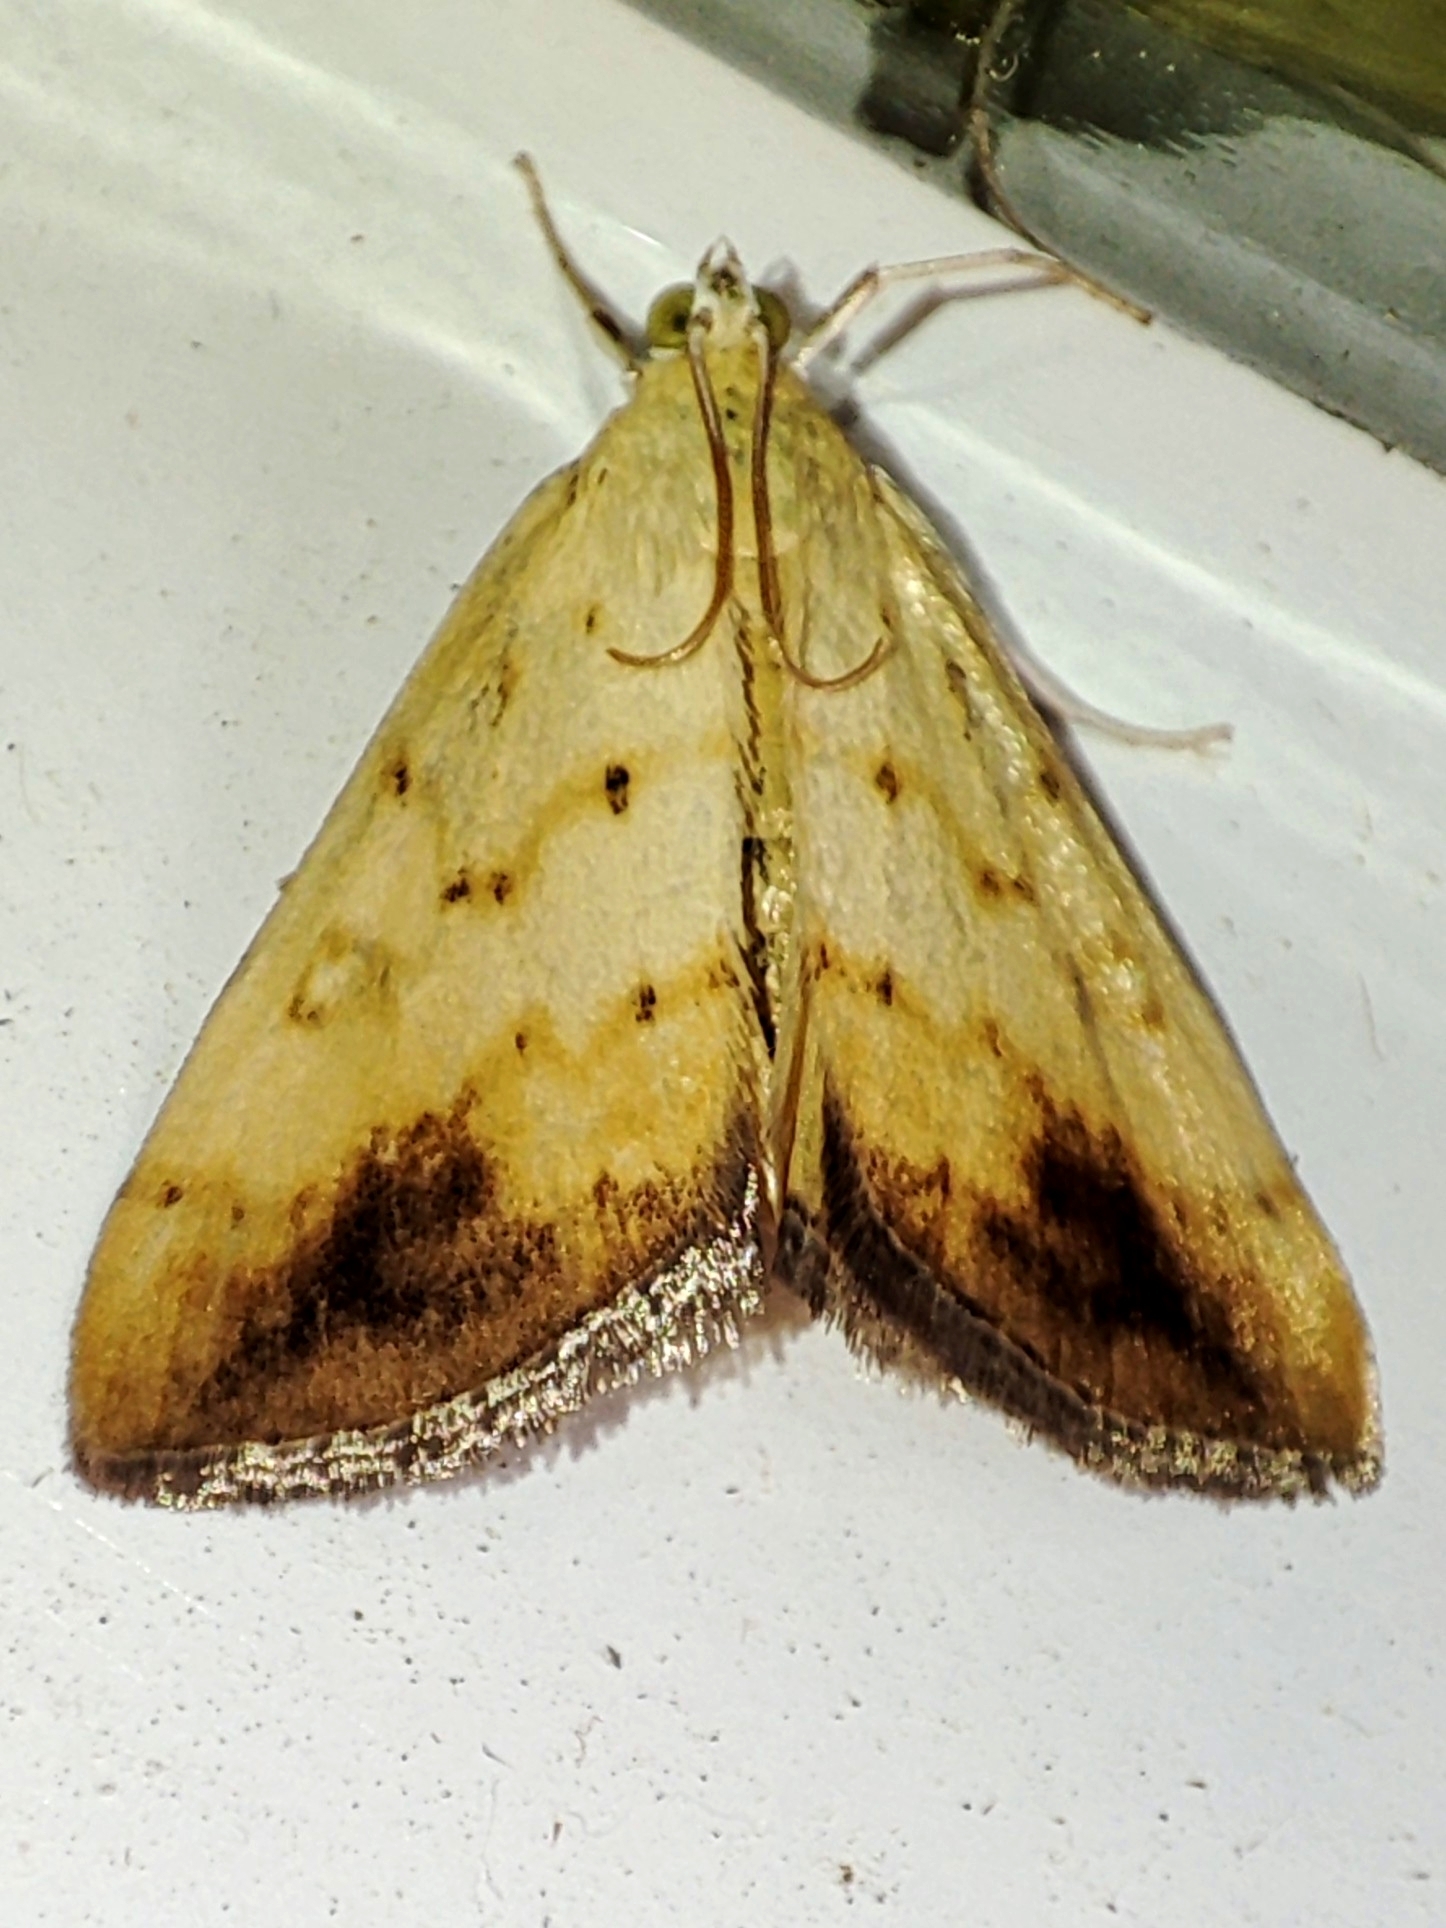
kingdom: Animalia
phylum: Arthropoda
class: Insecta
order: Lepidoptera
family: Crambidae
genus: Evergestis
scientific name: Evergestis extimalis
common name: Marbled yellow pearl
